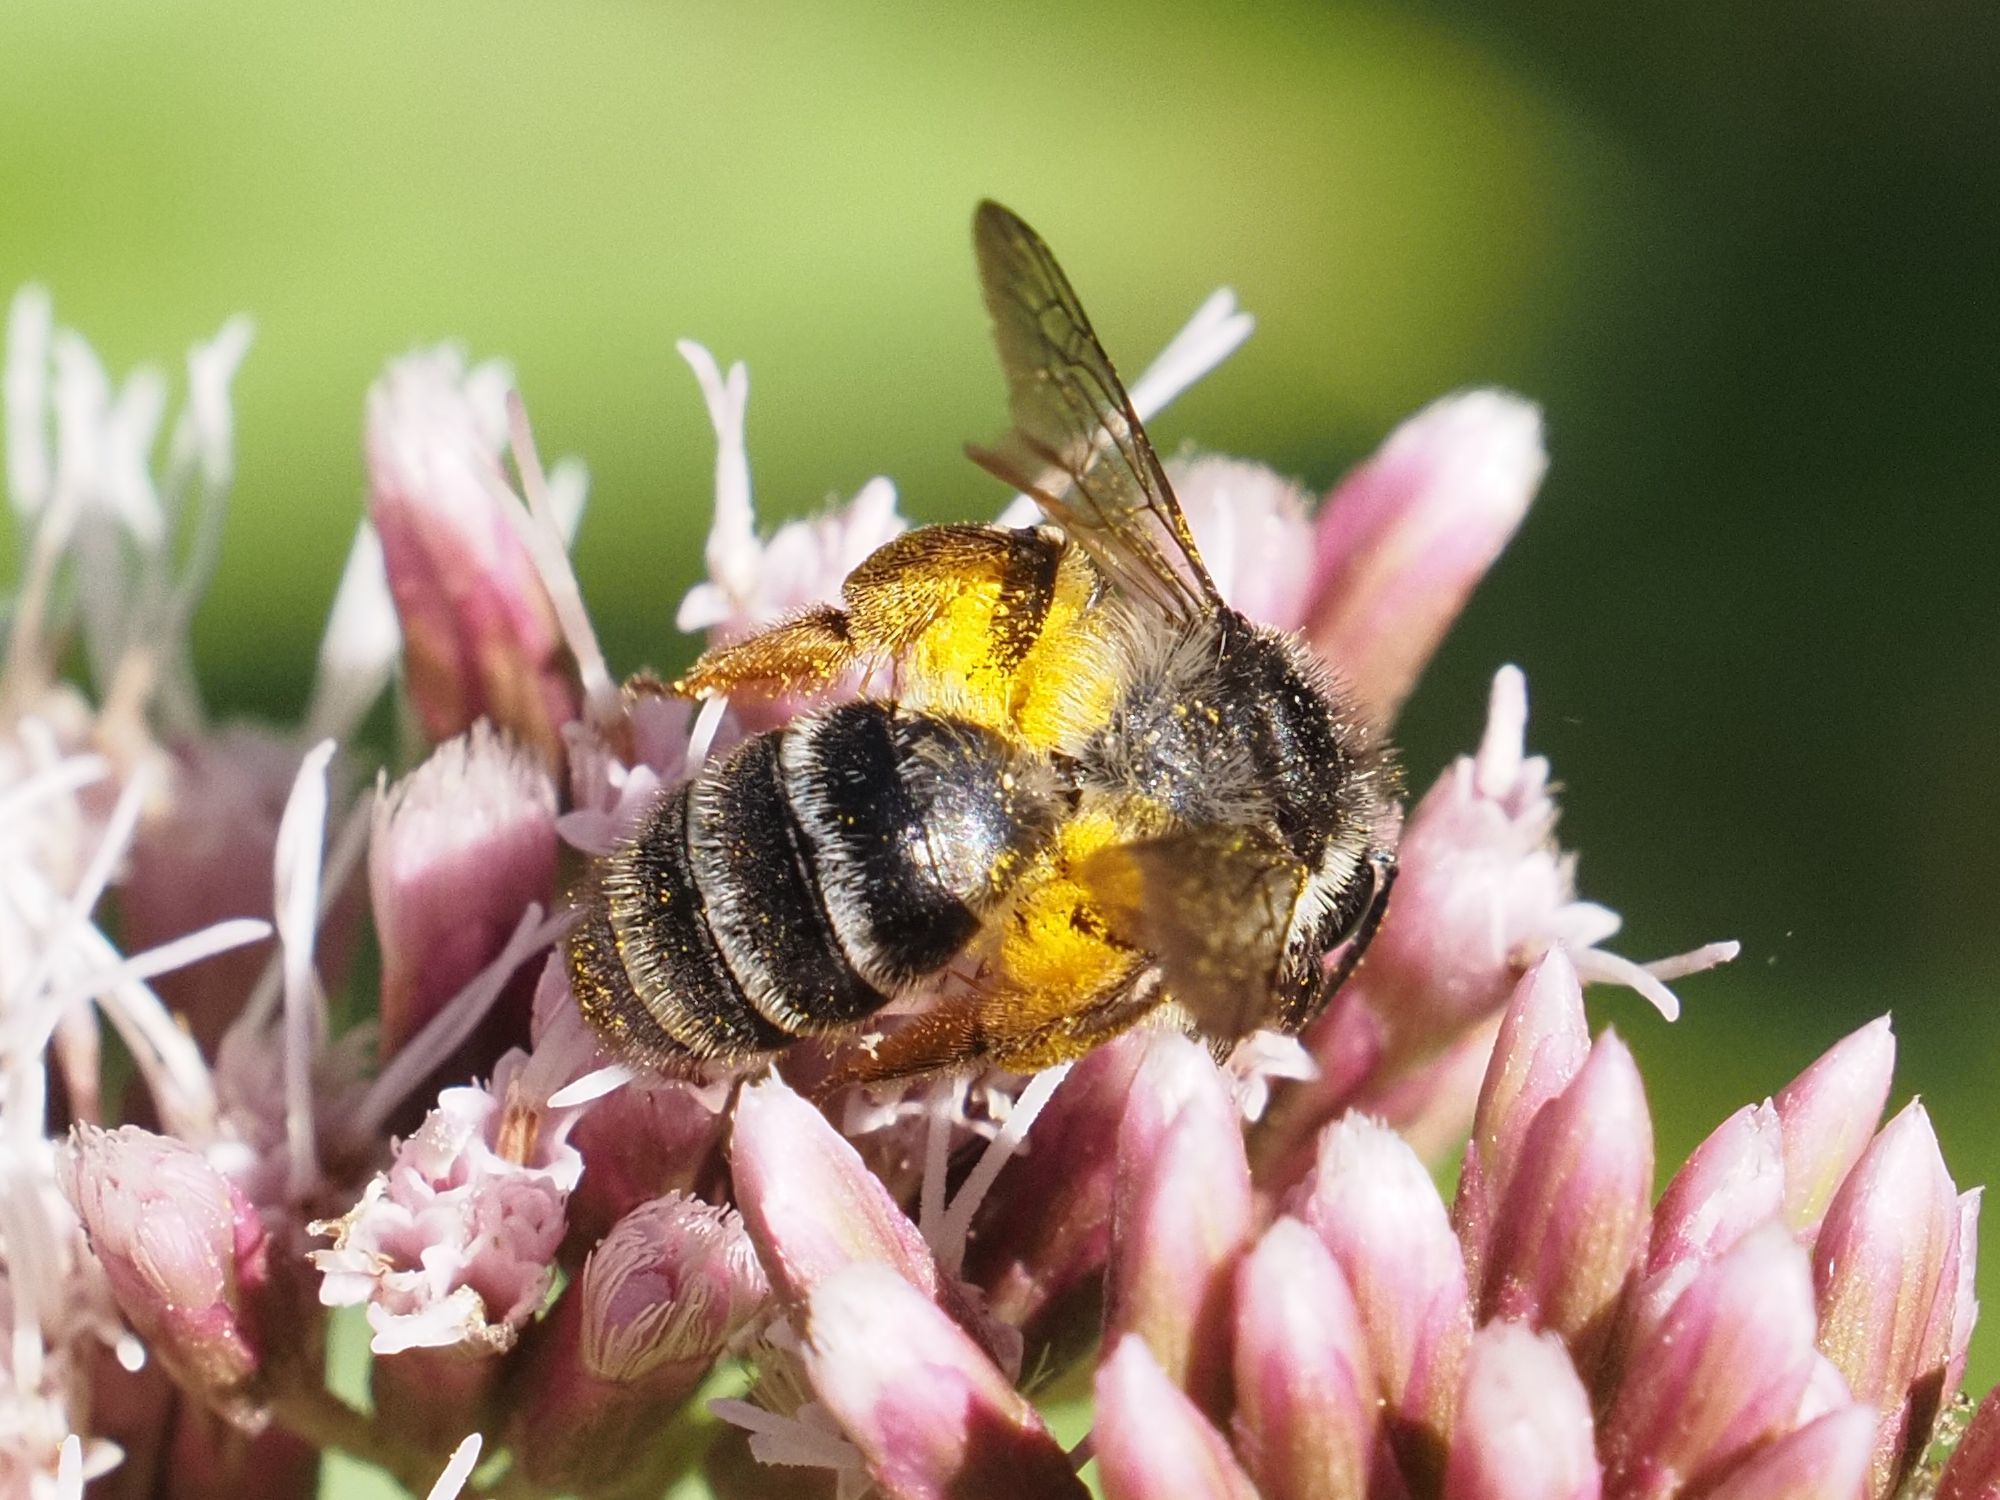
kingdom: Animalia
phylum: Arthropoda
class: Insecta
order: Hymenoptera
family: Andrenidae
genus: Andrena
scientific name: Andrena denticulata
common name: Grey-banded mining bee
